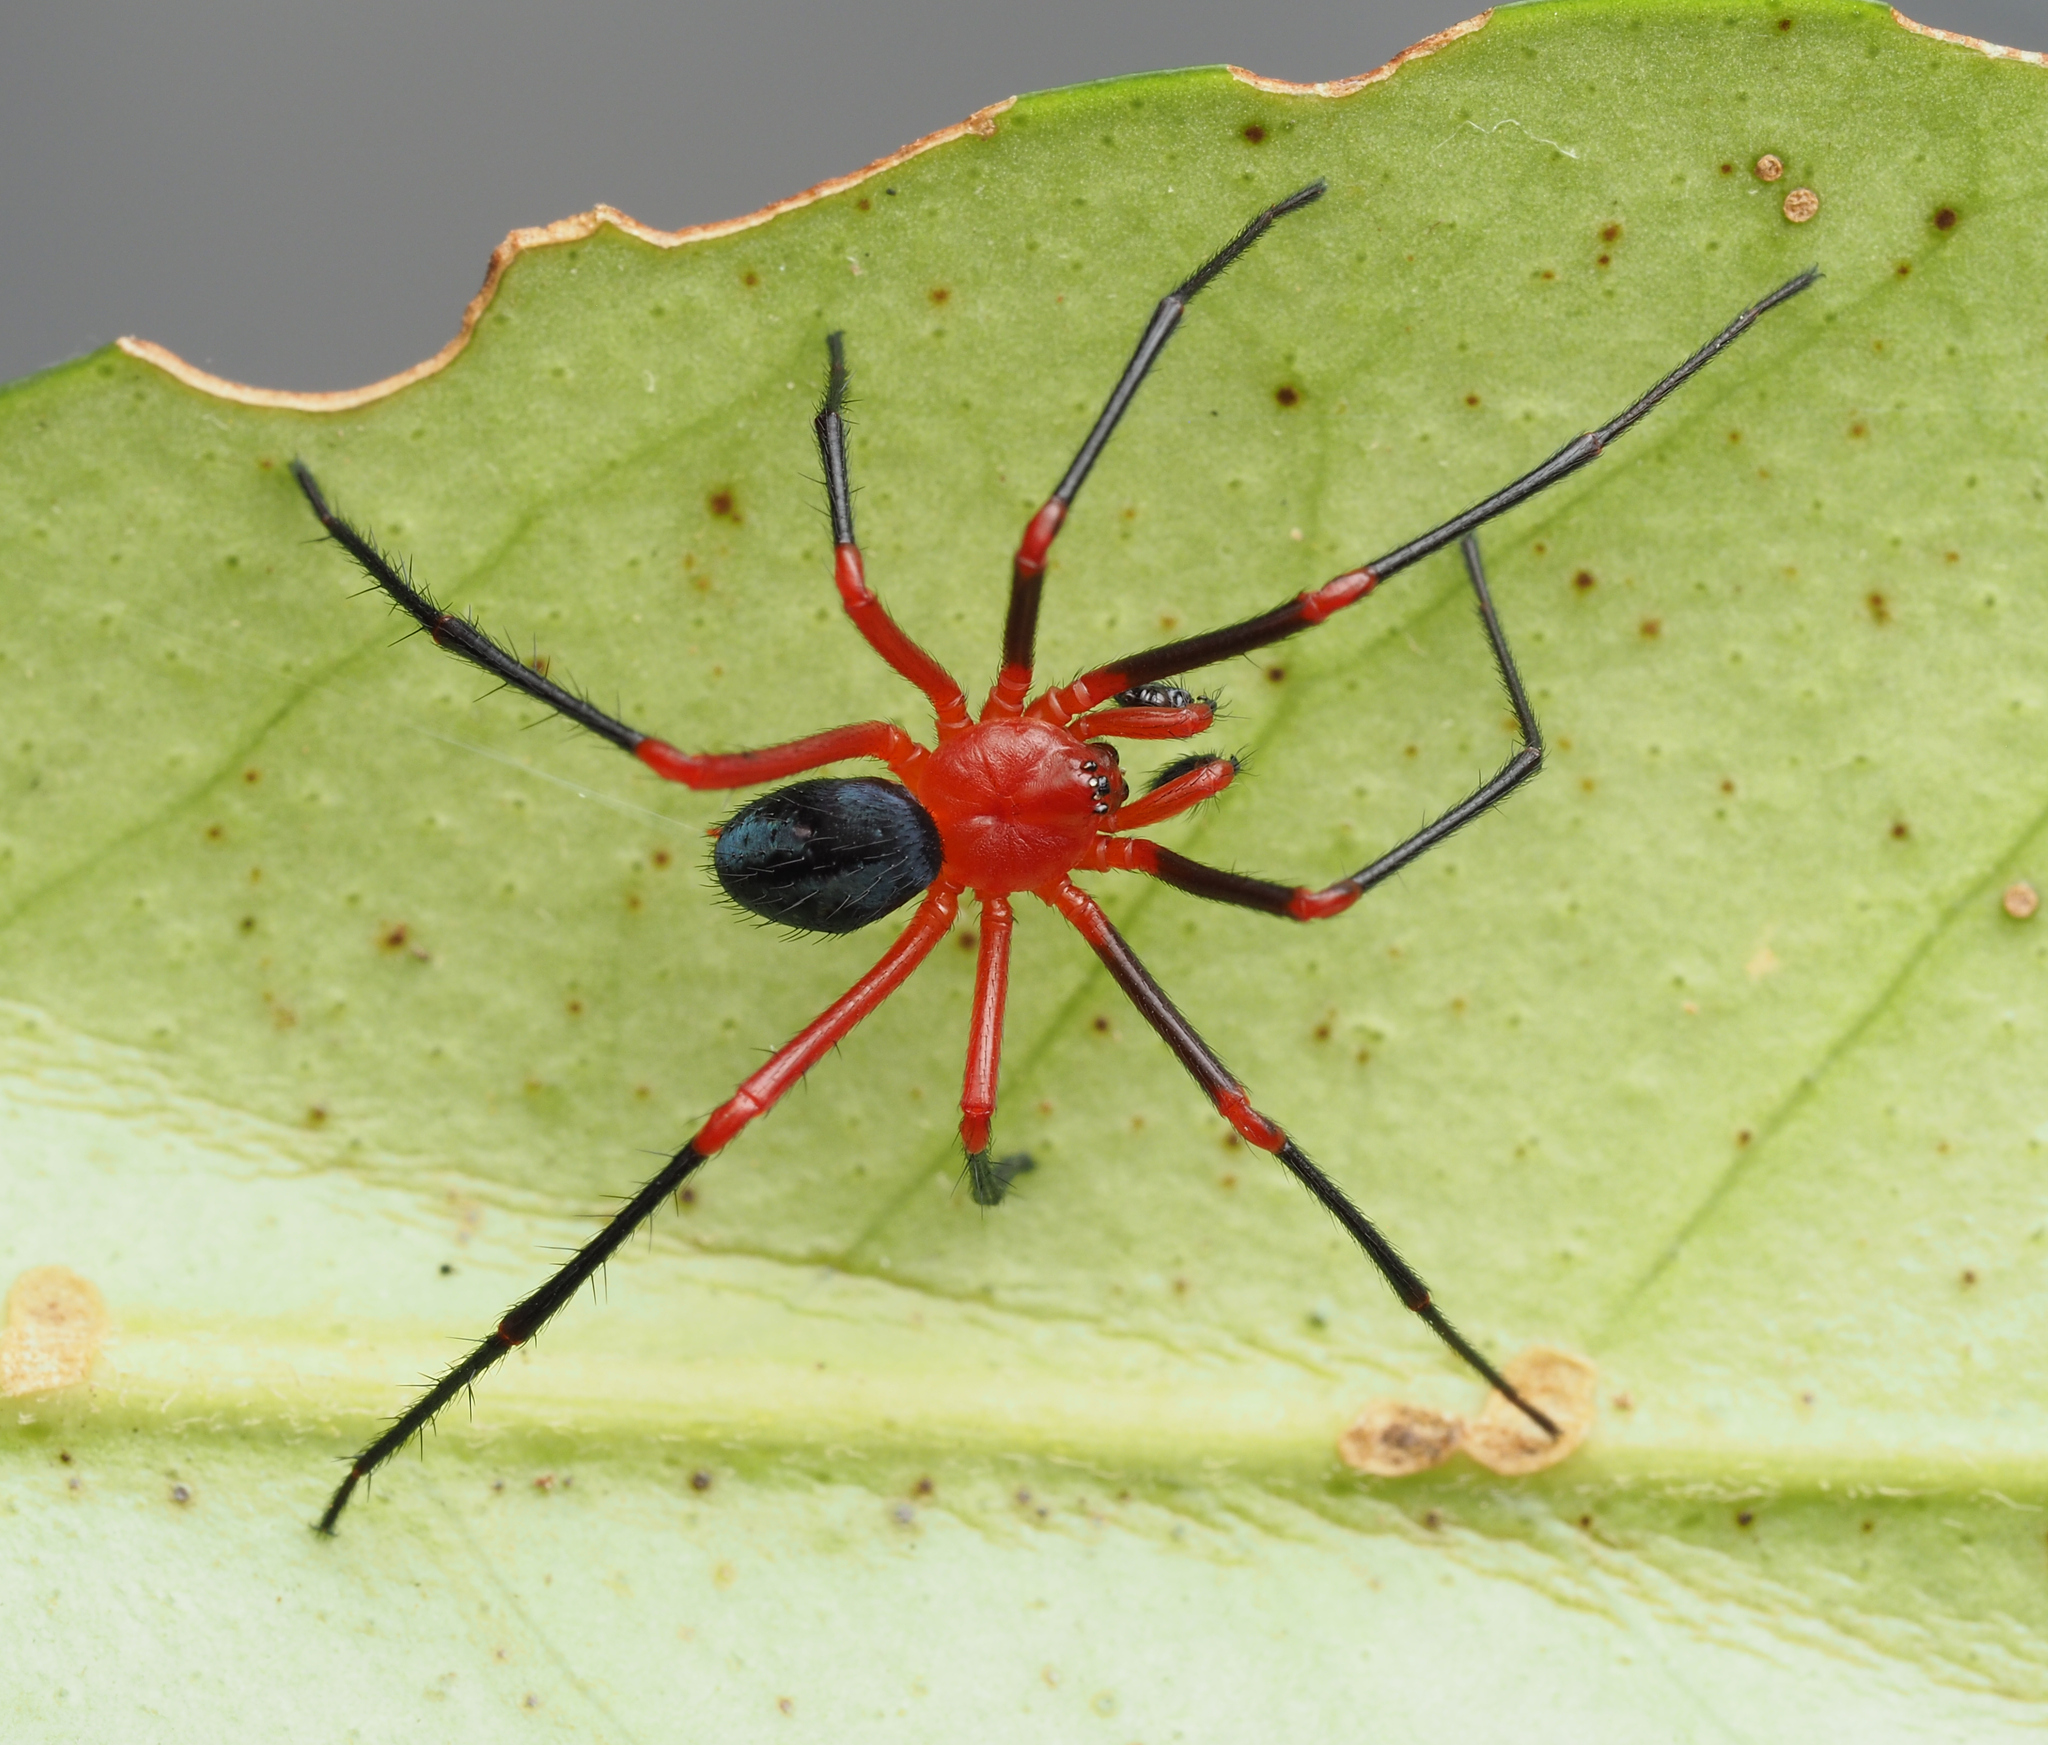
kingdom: Animalia
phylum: Arthropoda
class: Arachnida
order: Araneae
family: Nicodamidae
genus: Oncodamus
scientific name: Oncodamus decipiens
